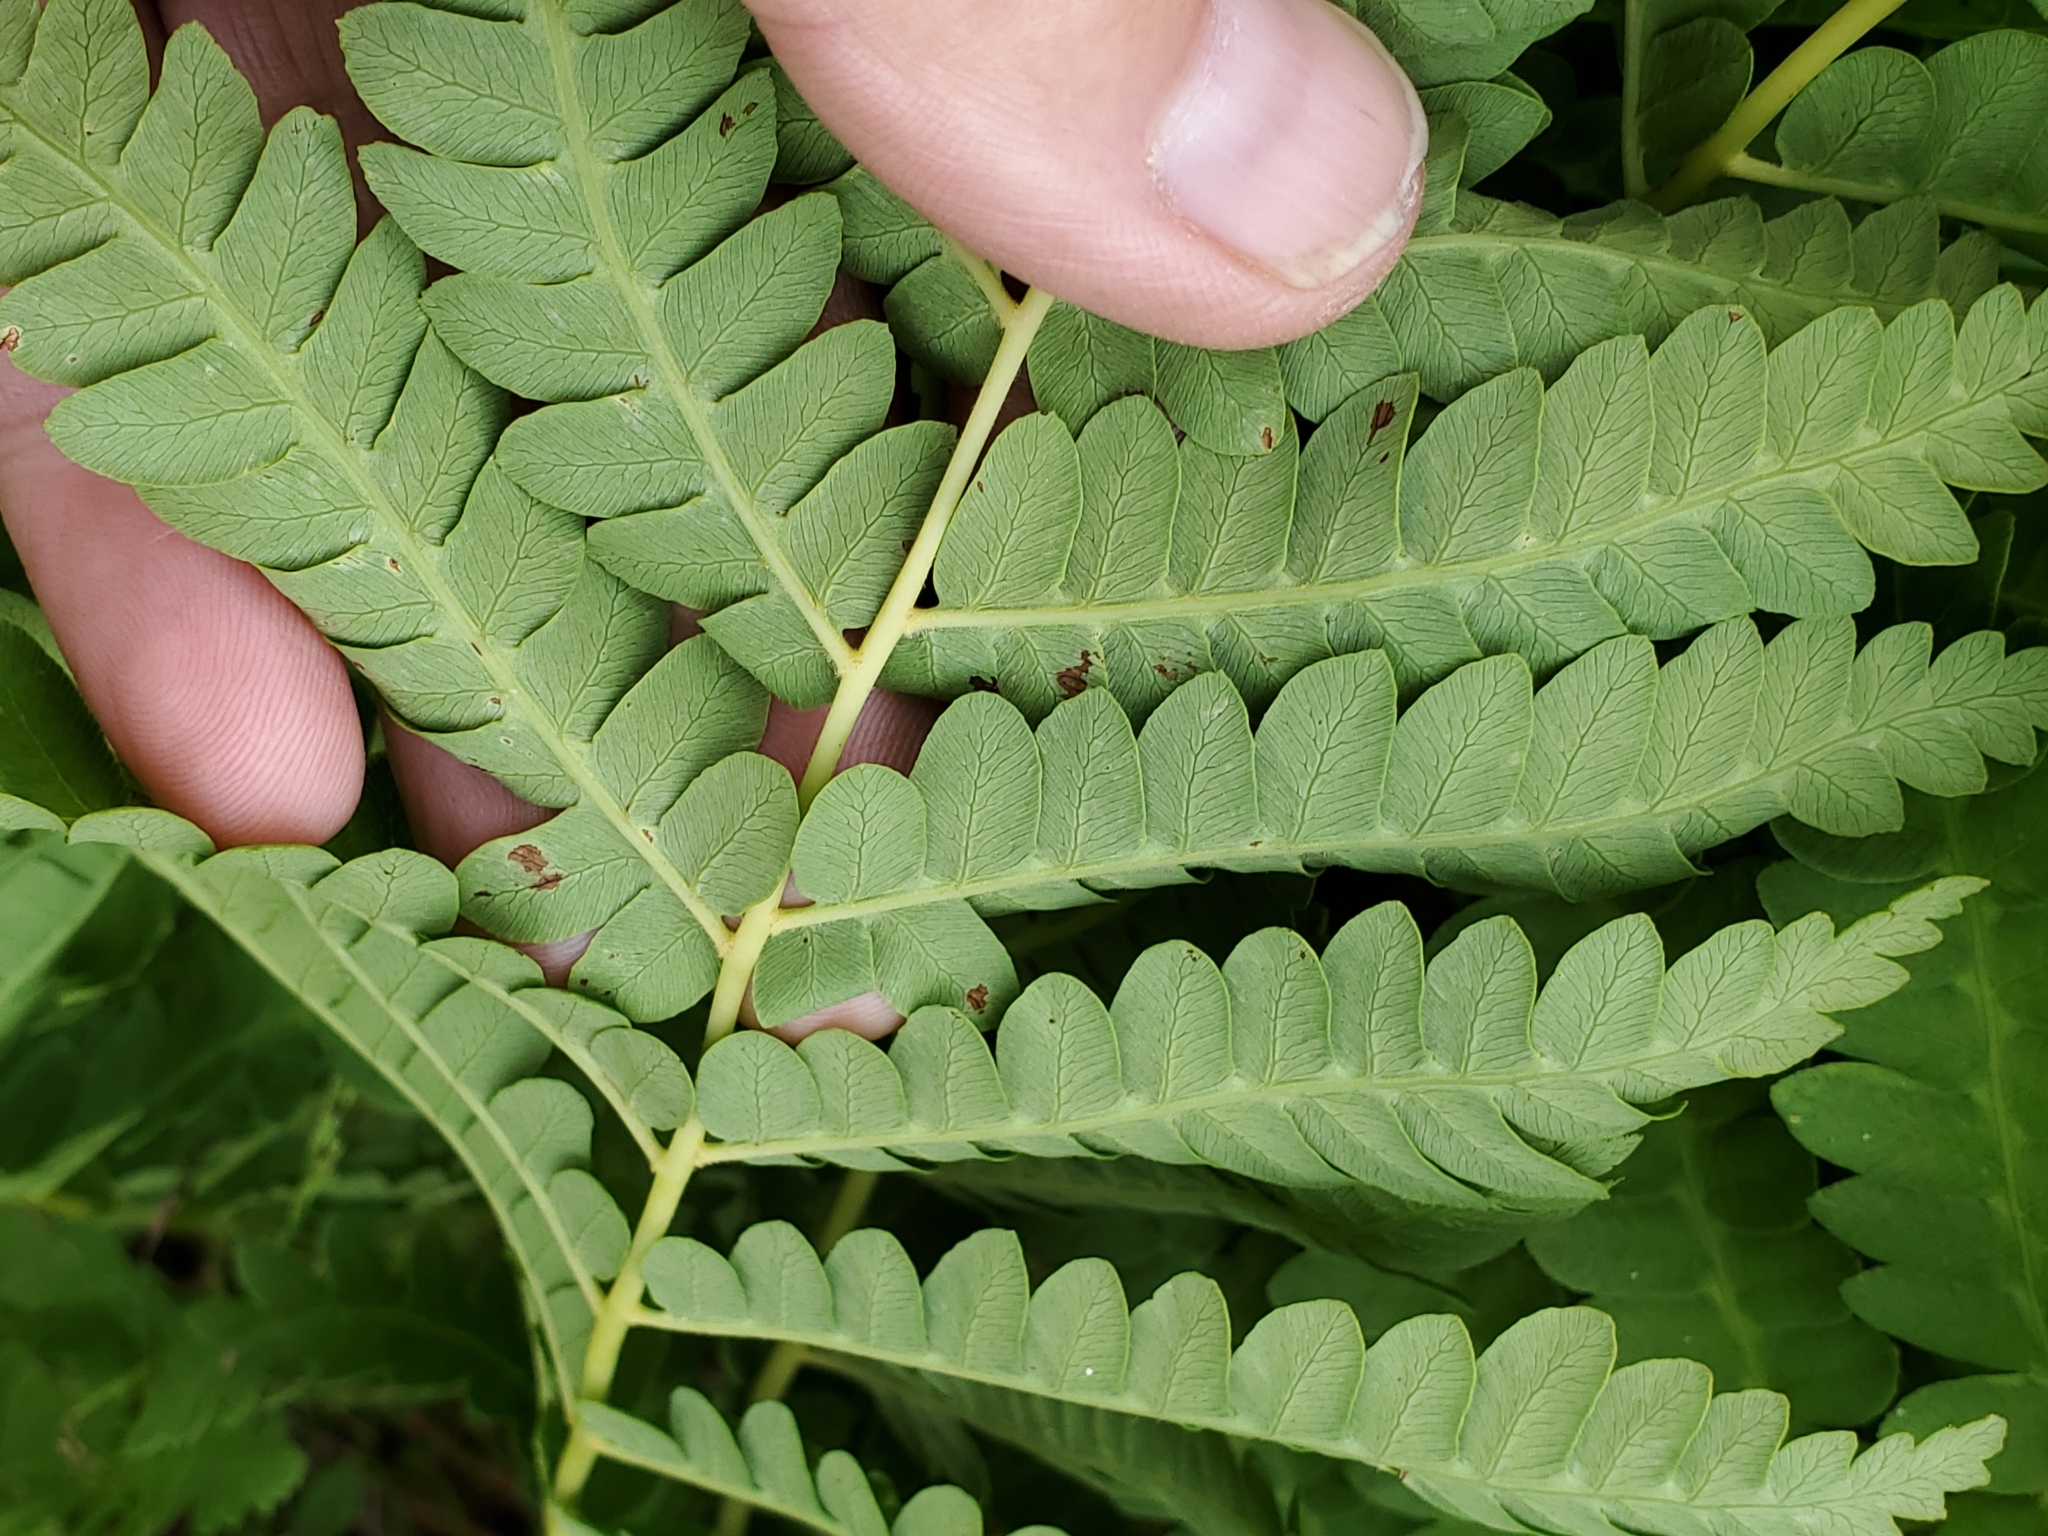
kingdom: Plantae
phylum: Tracheophyta
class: Polypodiopsida
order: Osmundales
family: Osmundaceae
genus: Osmundastrum
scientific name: Osmundastrum cinnamomeum
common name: Cinnamon fern
